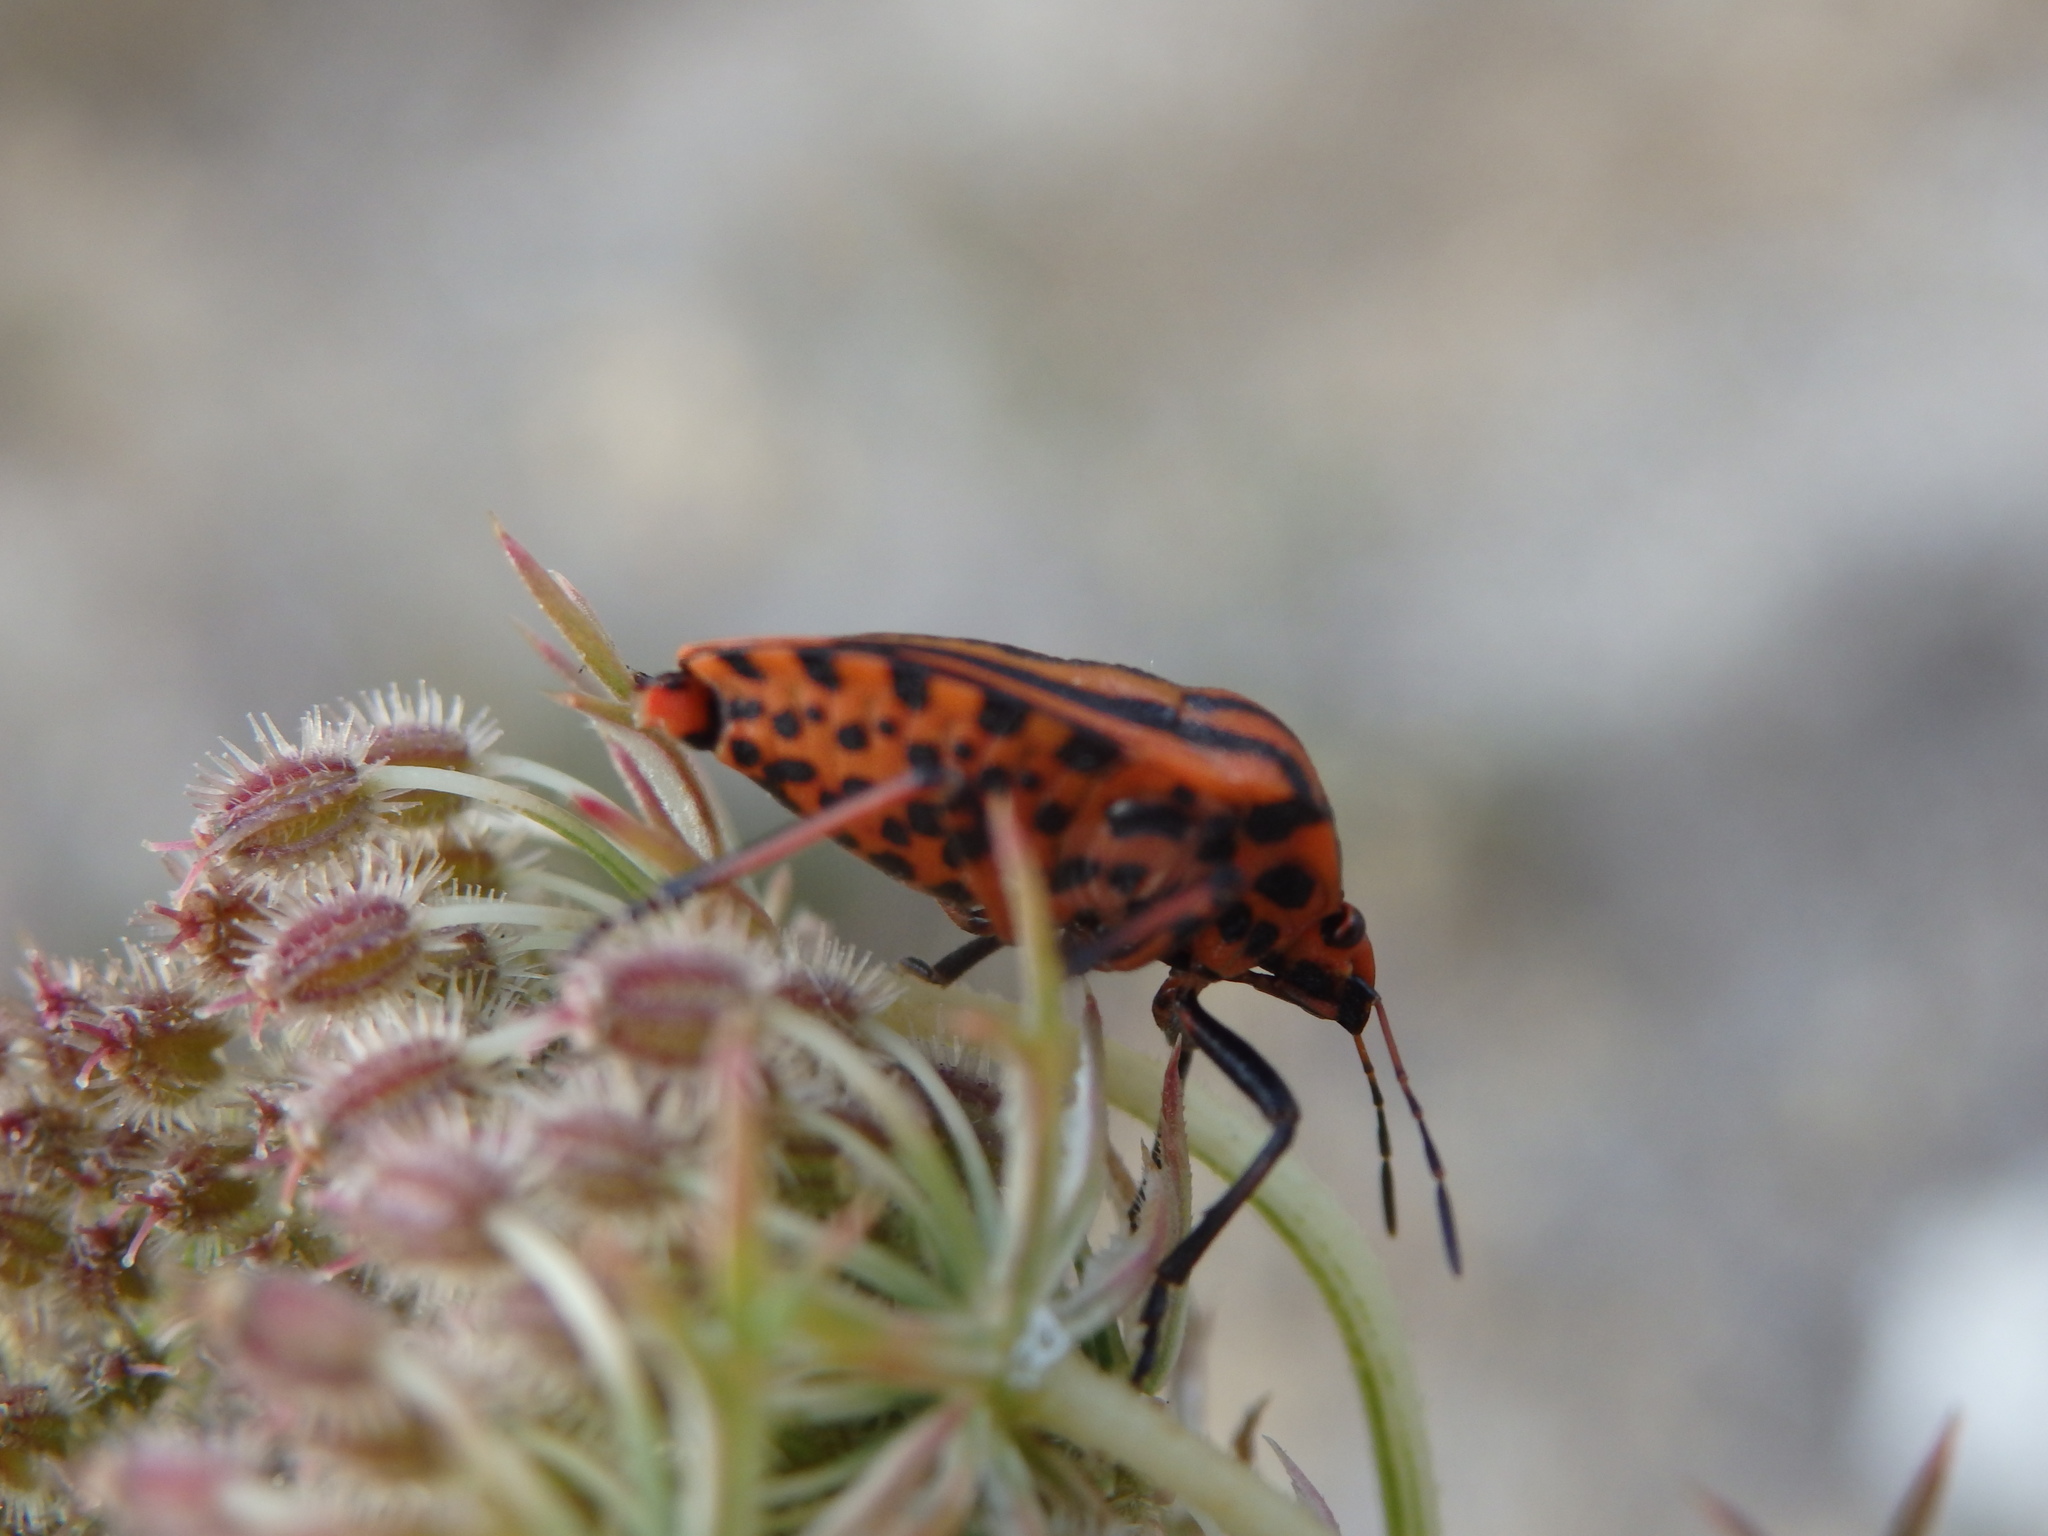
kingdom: Animalia
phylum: Arthropoda
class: Insecta
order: Hemiptera
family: Pentatomidae
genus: Graphosoma
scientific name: Graphosoma italicum
